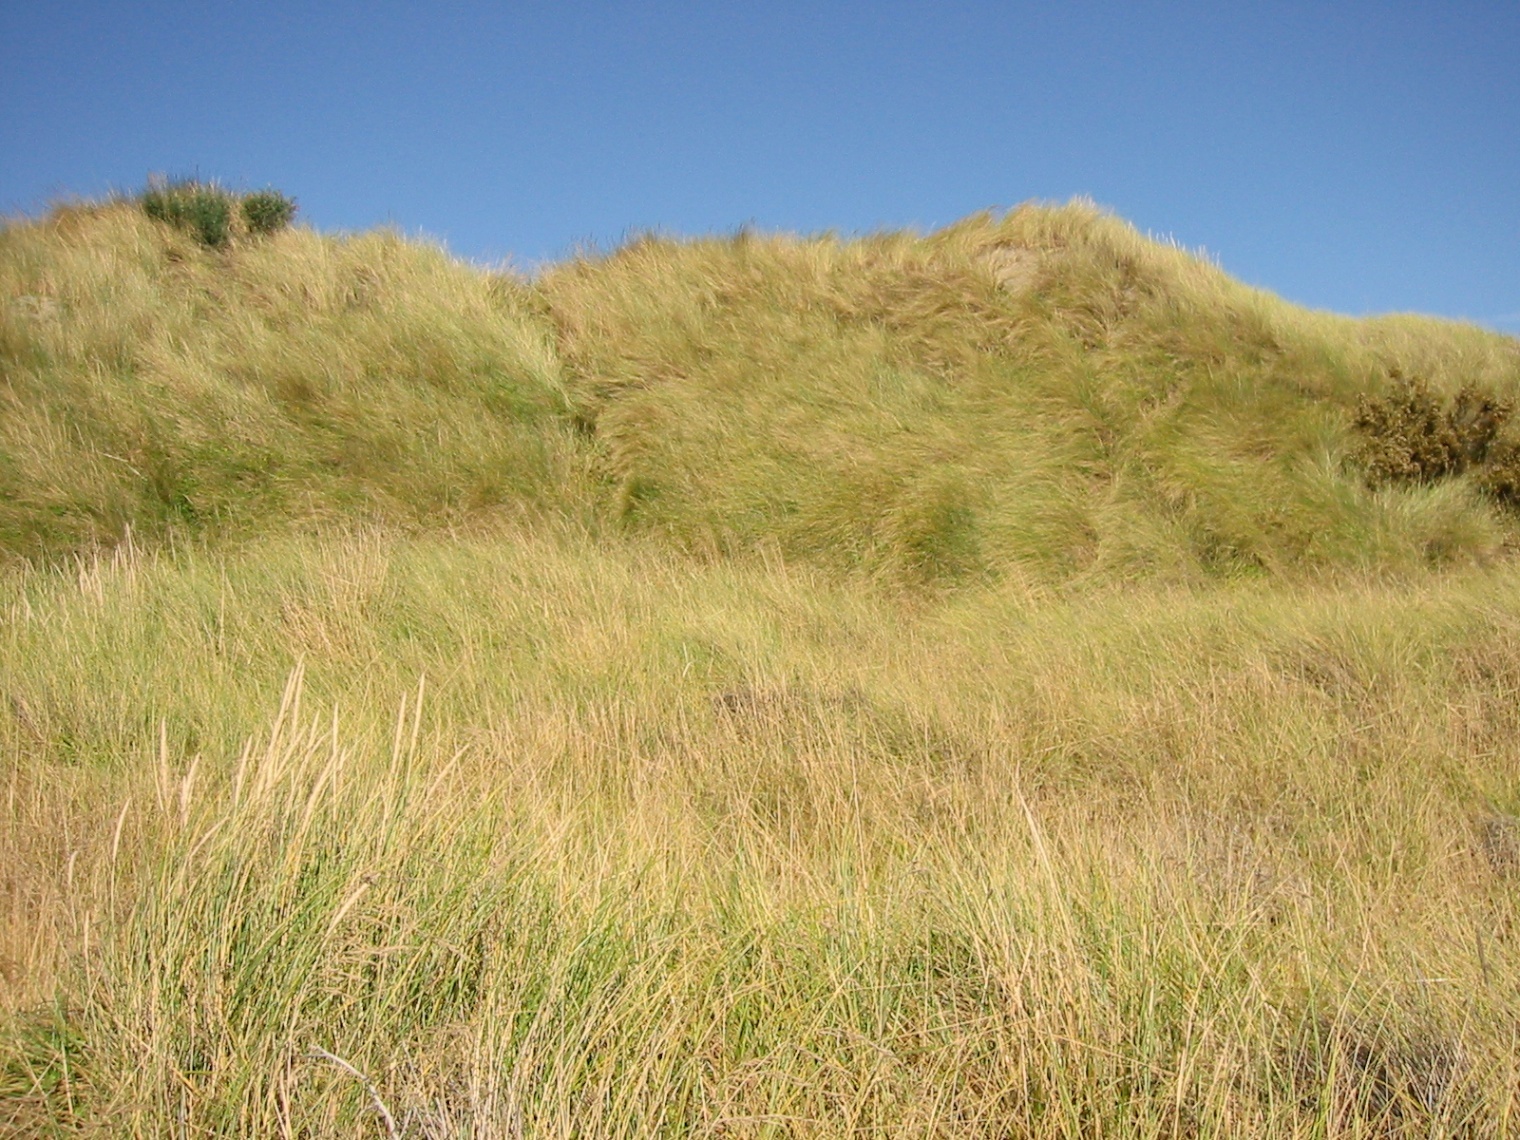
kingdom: Plantae
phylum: Tracheophyta
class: Liliopsida
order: Poales
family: Poaceae
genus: Calamagrostis
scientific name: Calamagrostis arenaria
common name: European beachgrass
